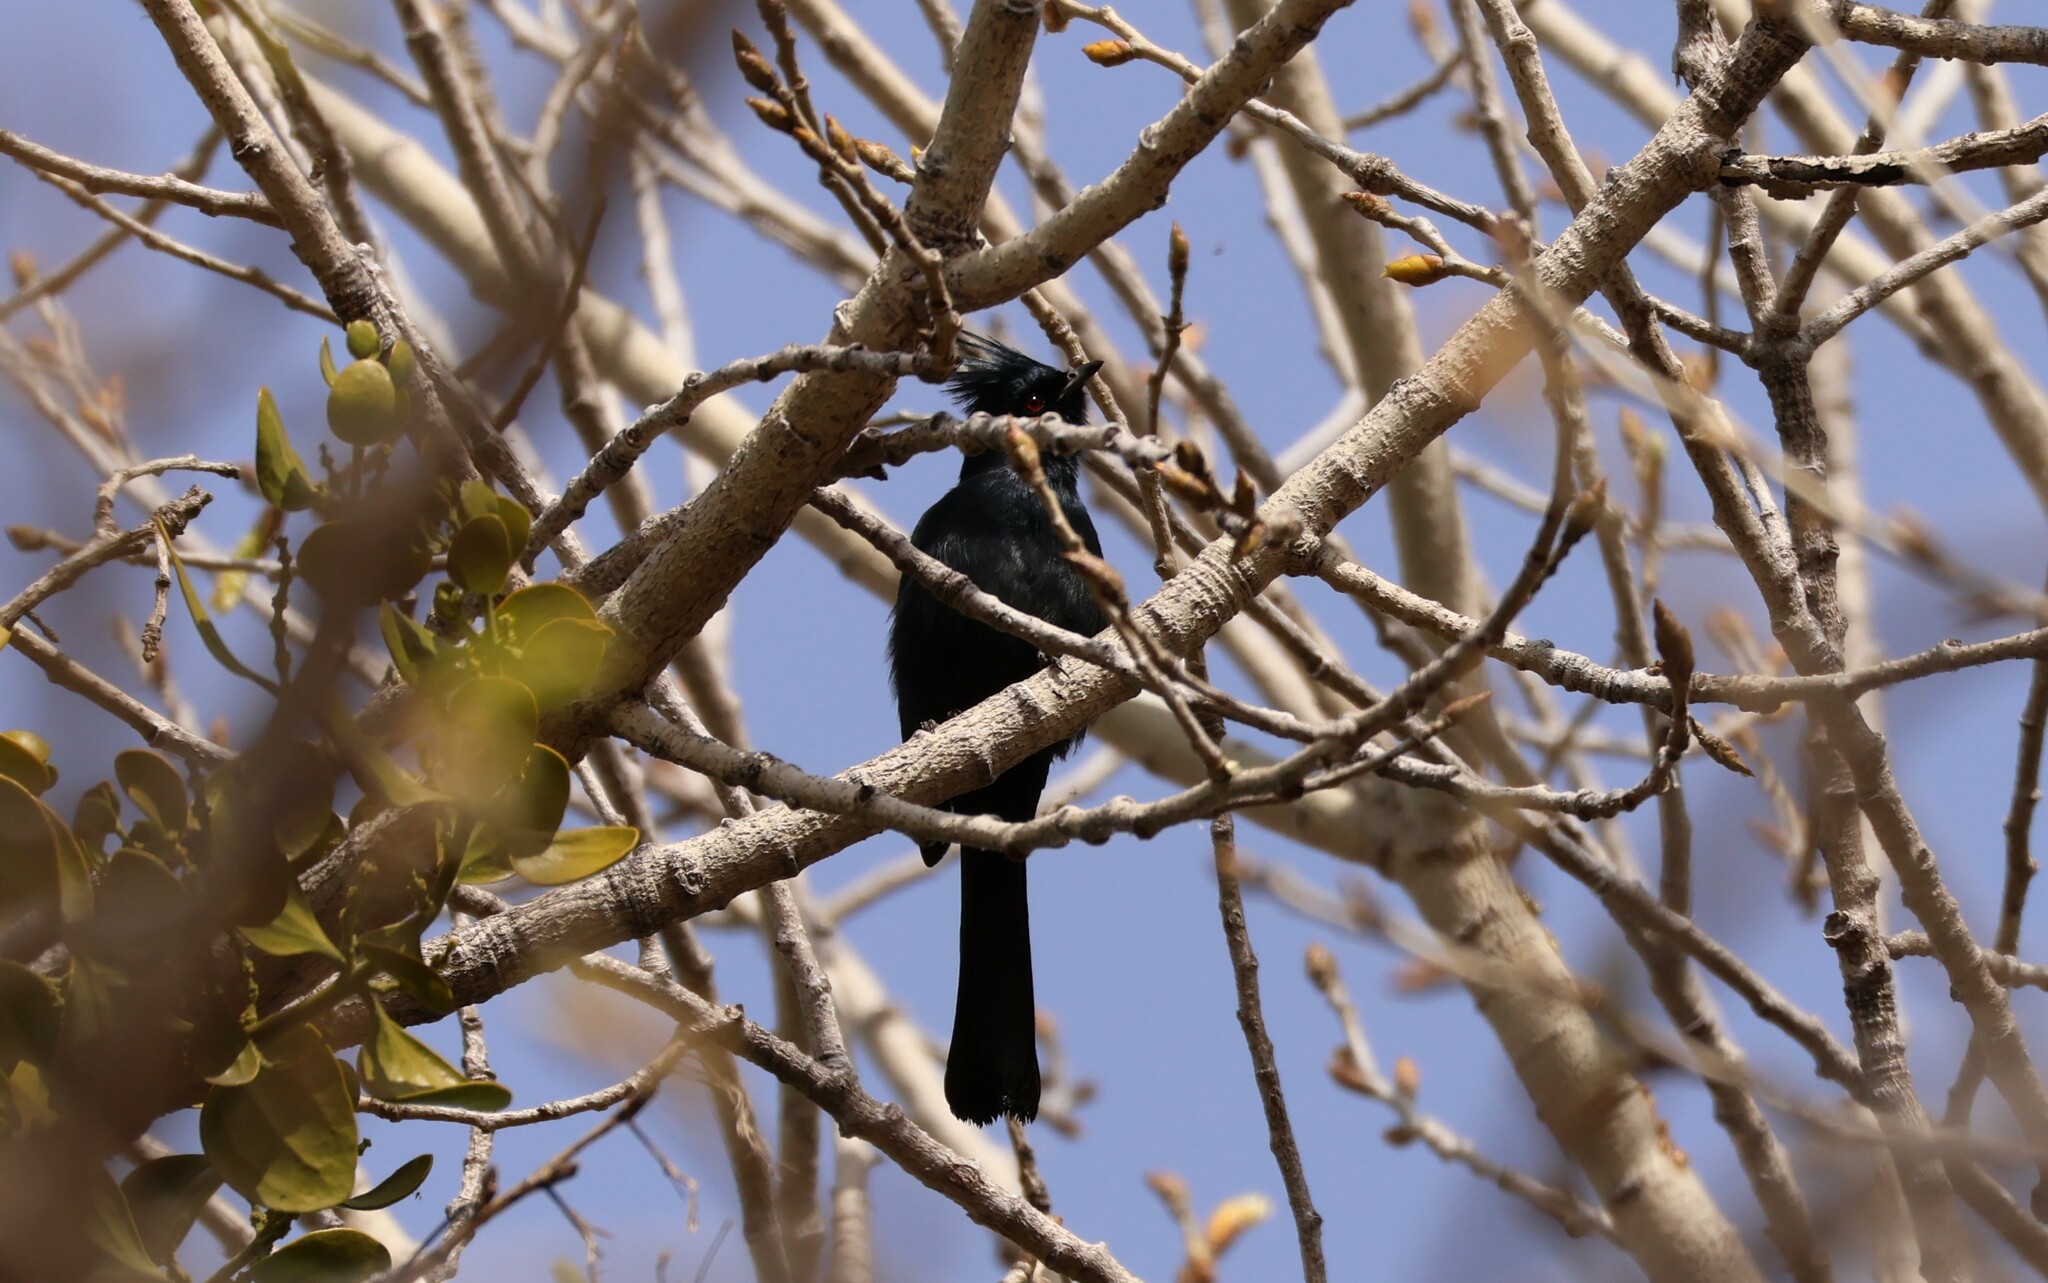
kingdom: Animalia
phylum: Chordata
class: Aves
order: Passeriformes
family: Ptilogonatidae
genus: Phainopepla
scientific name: Phainopepla nitens
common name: Phainopepla
